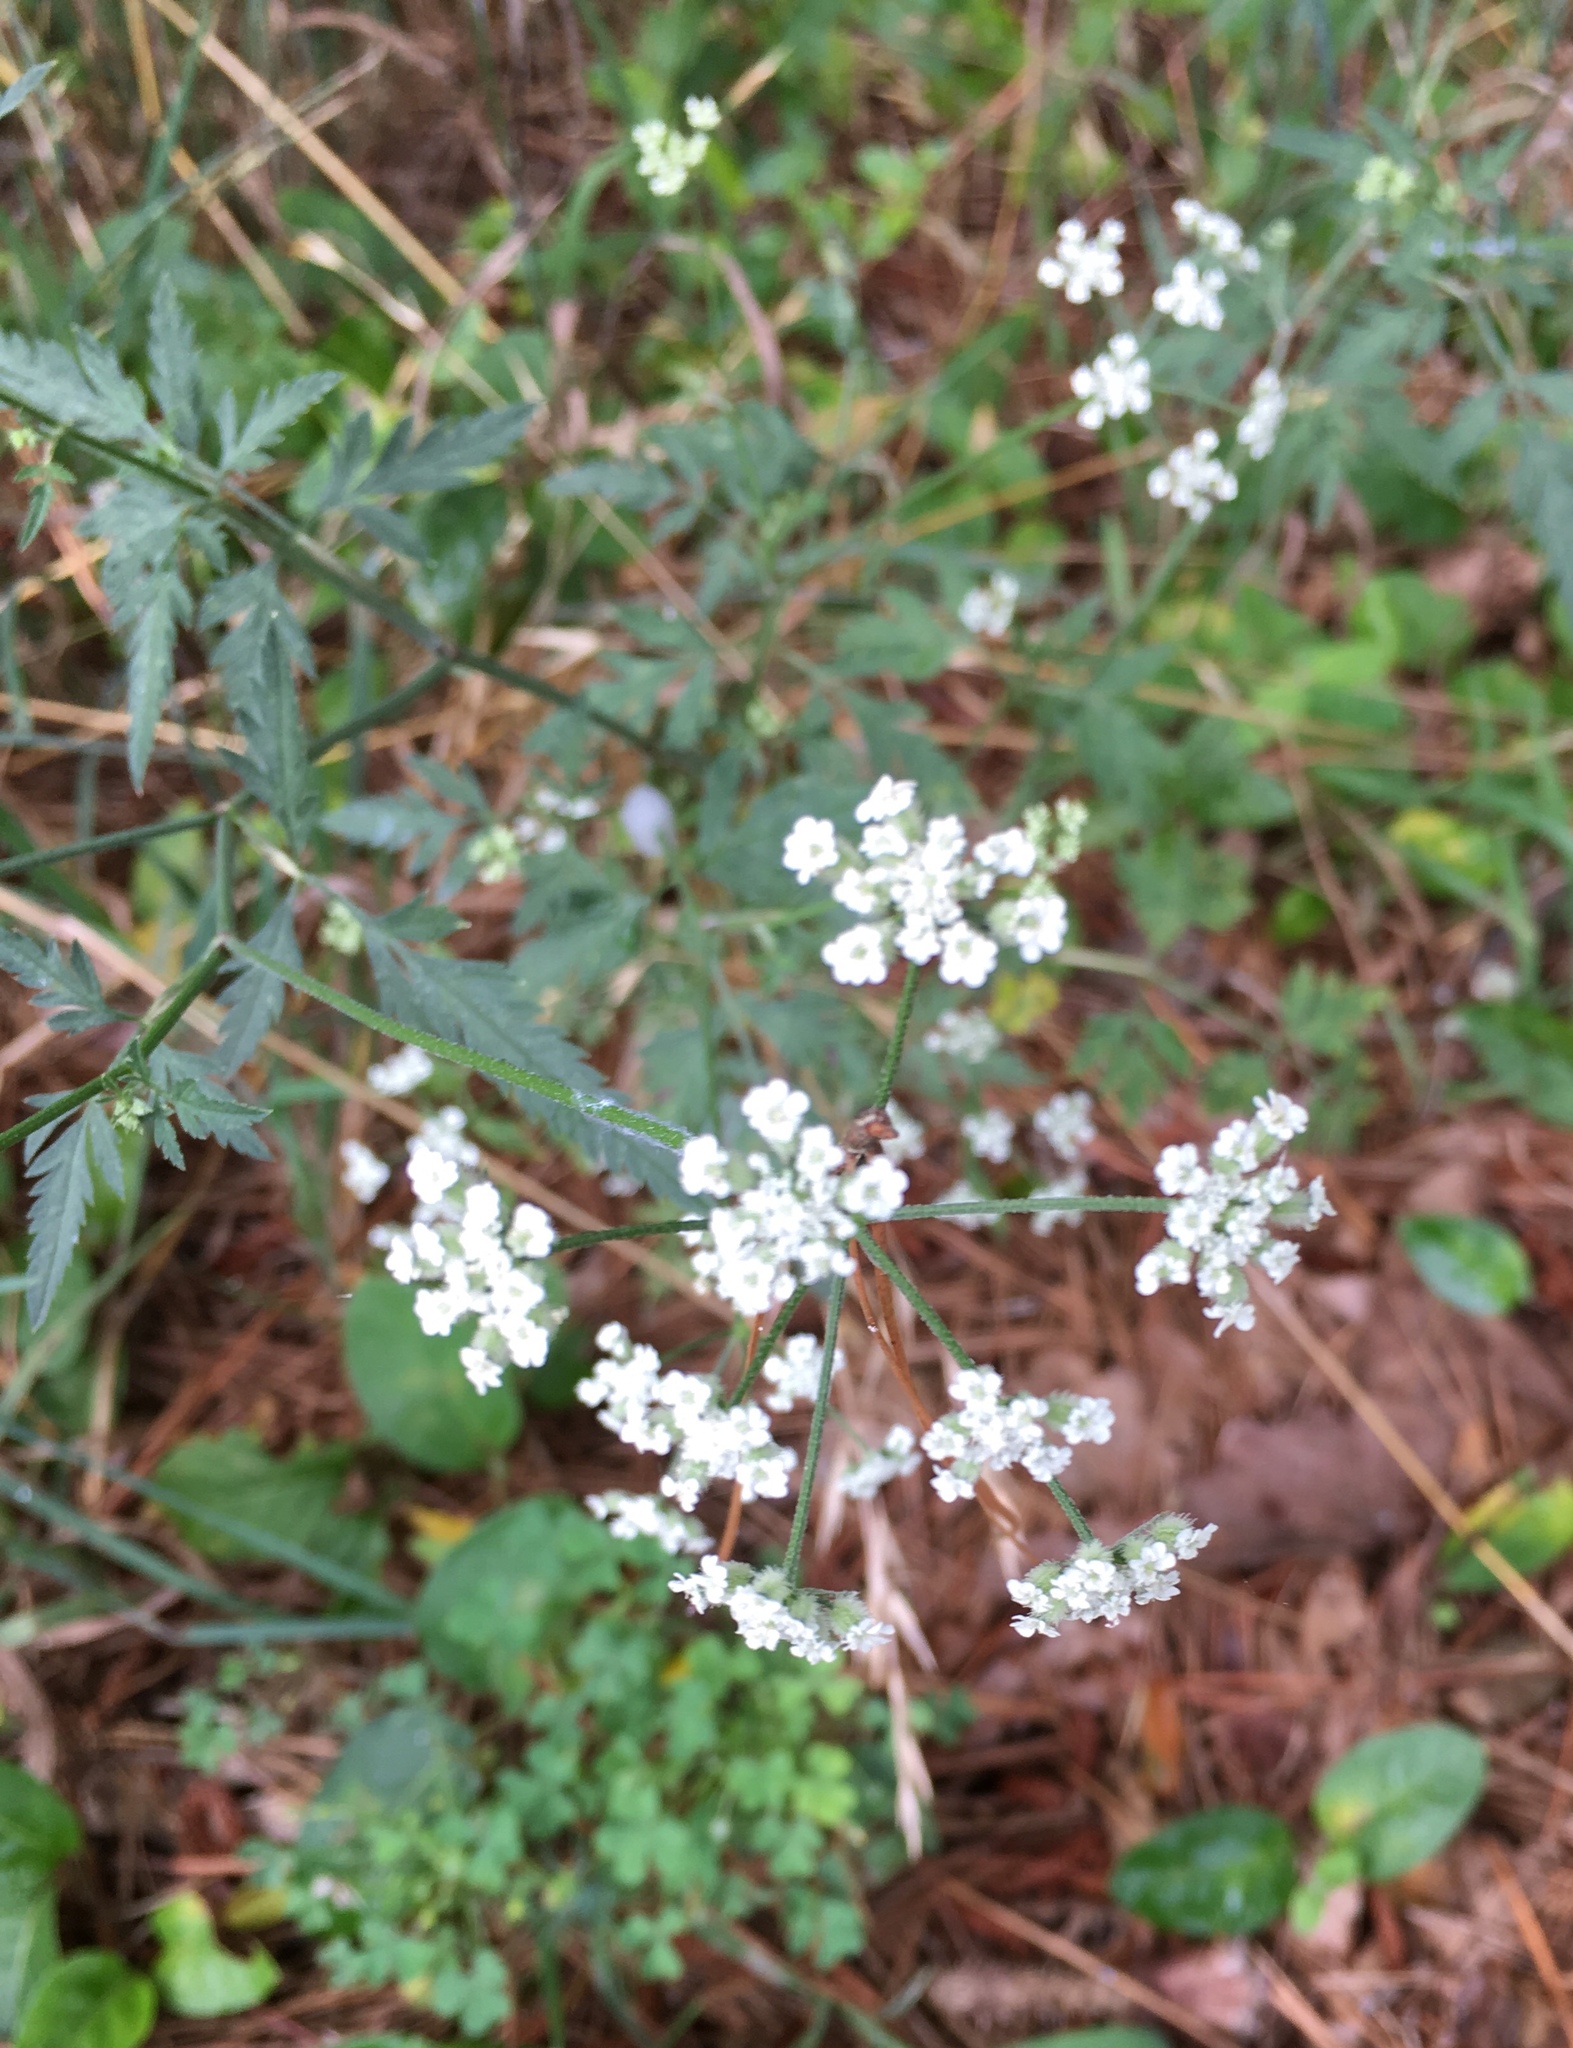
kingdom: Plantae
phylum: Tracheophyta
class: Magnoliopsida
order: Apiales
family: Apiaceae
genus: Torilis
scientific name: Torilis arvensis
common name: Spreading hedge-parsley
